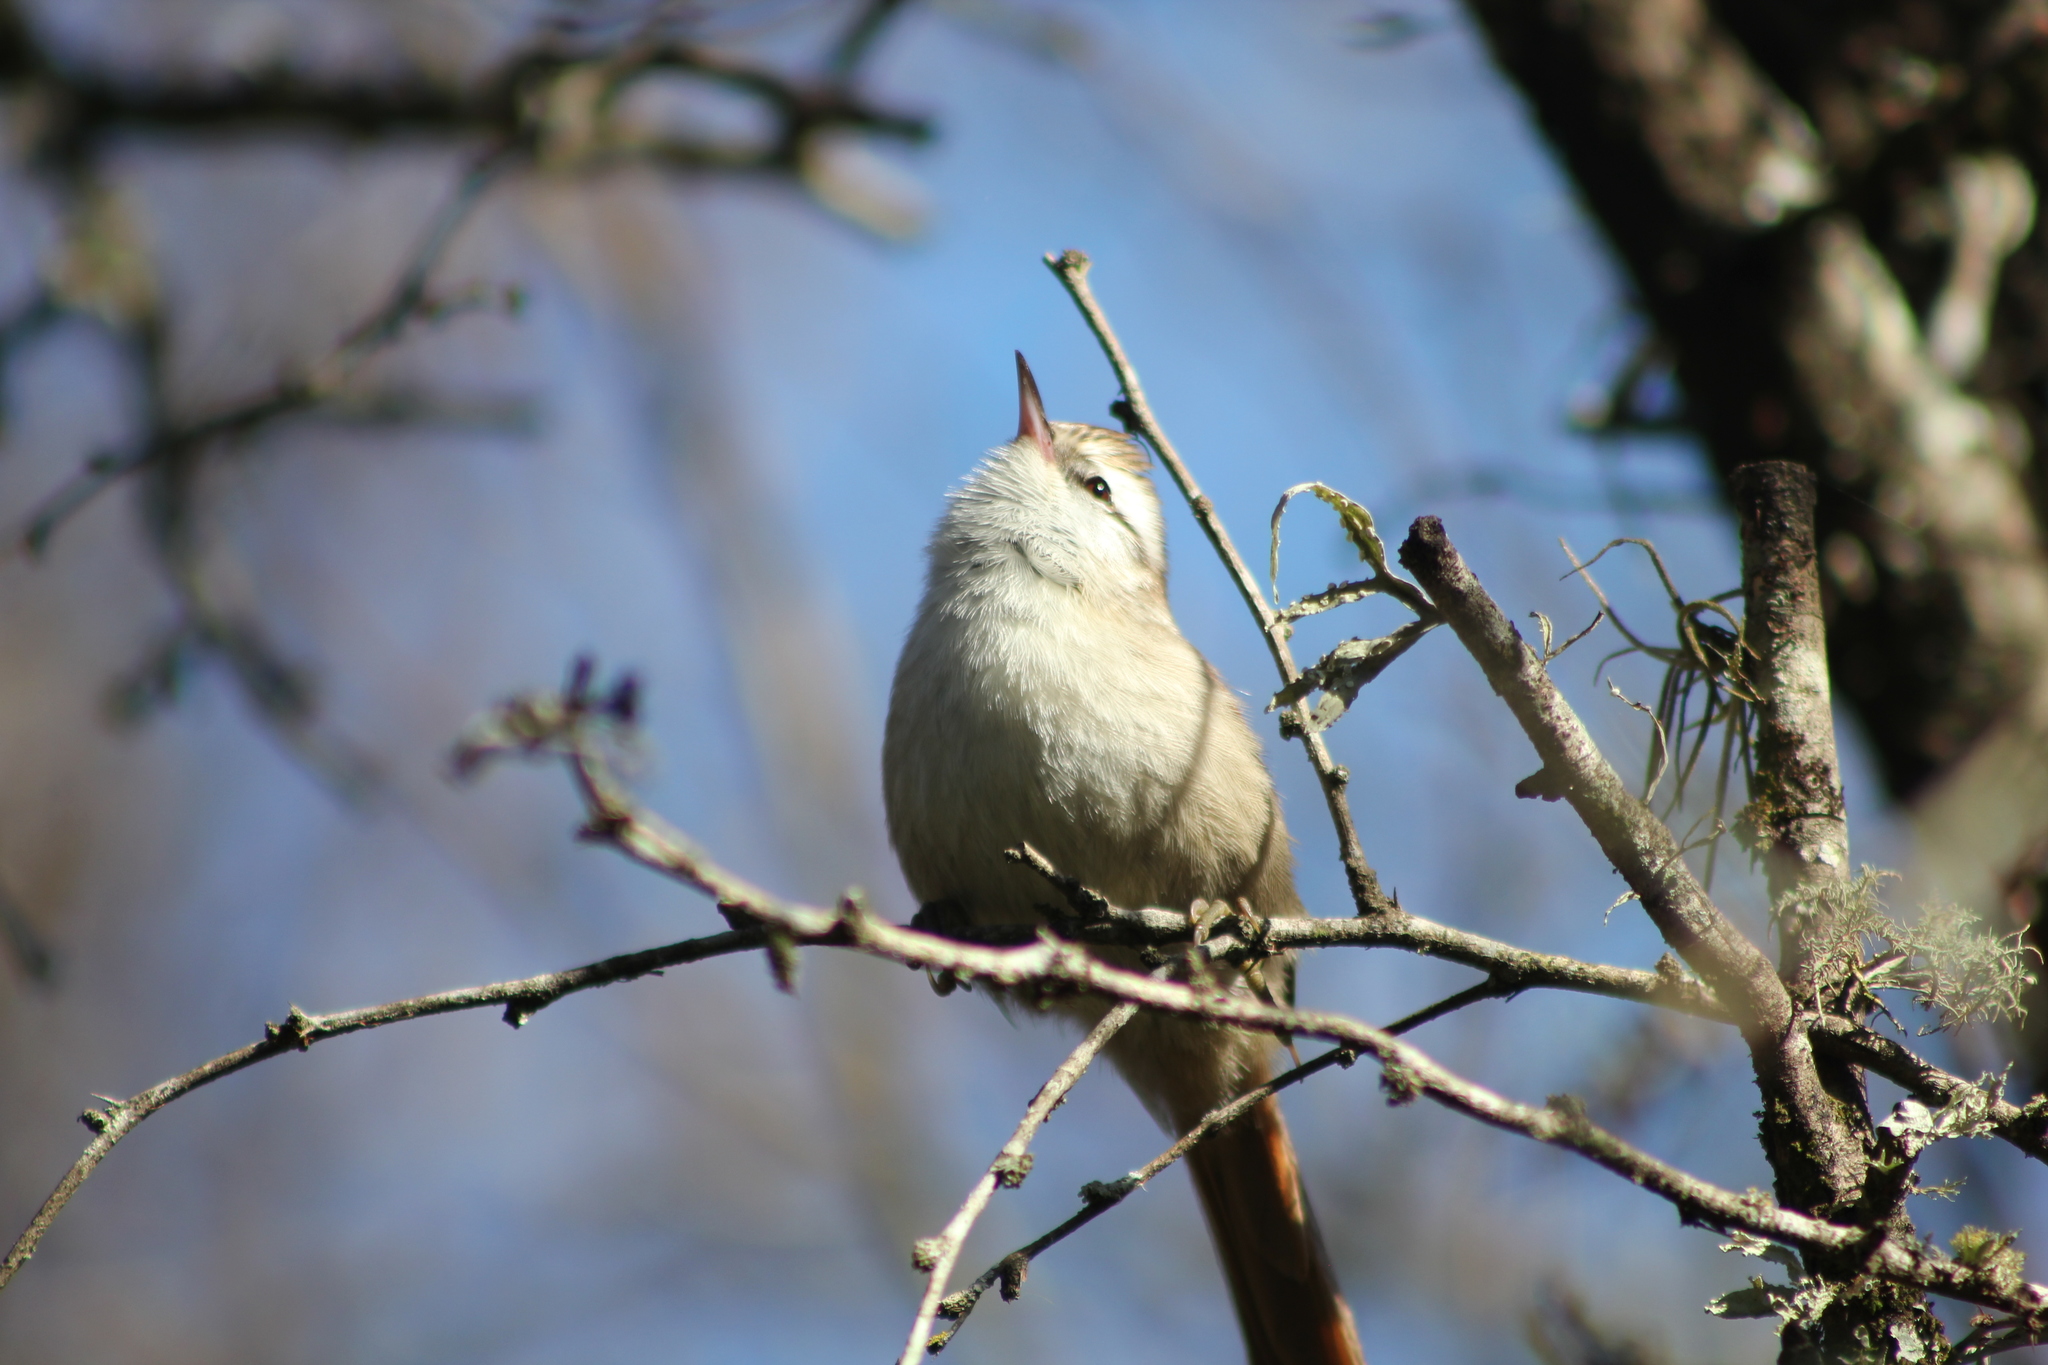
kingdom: Animalia
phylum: Chordata
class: Aves
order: Passeriformes
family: Furnariidae
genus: Cranioleuca
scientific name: Cranioleuca pyrrhophia
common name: Stripe-crowned spinetail
